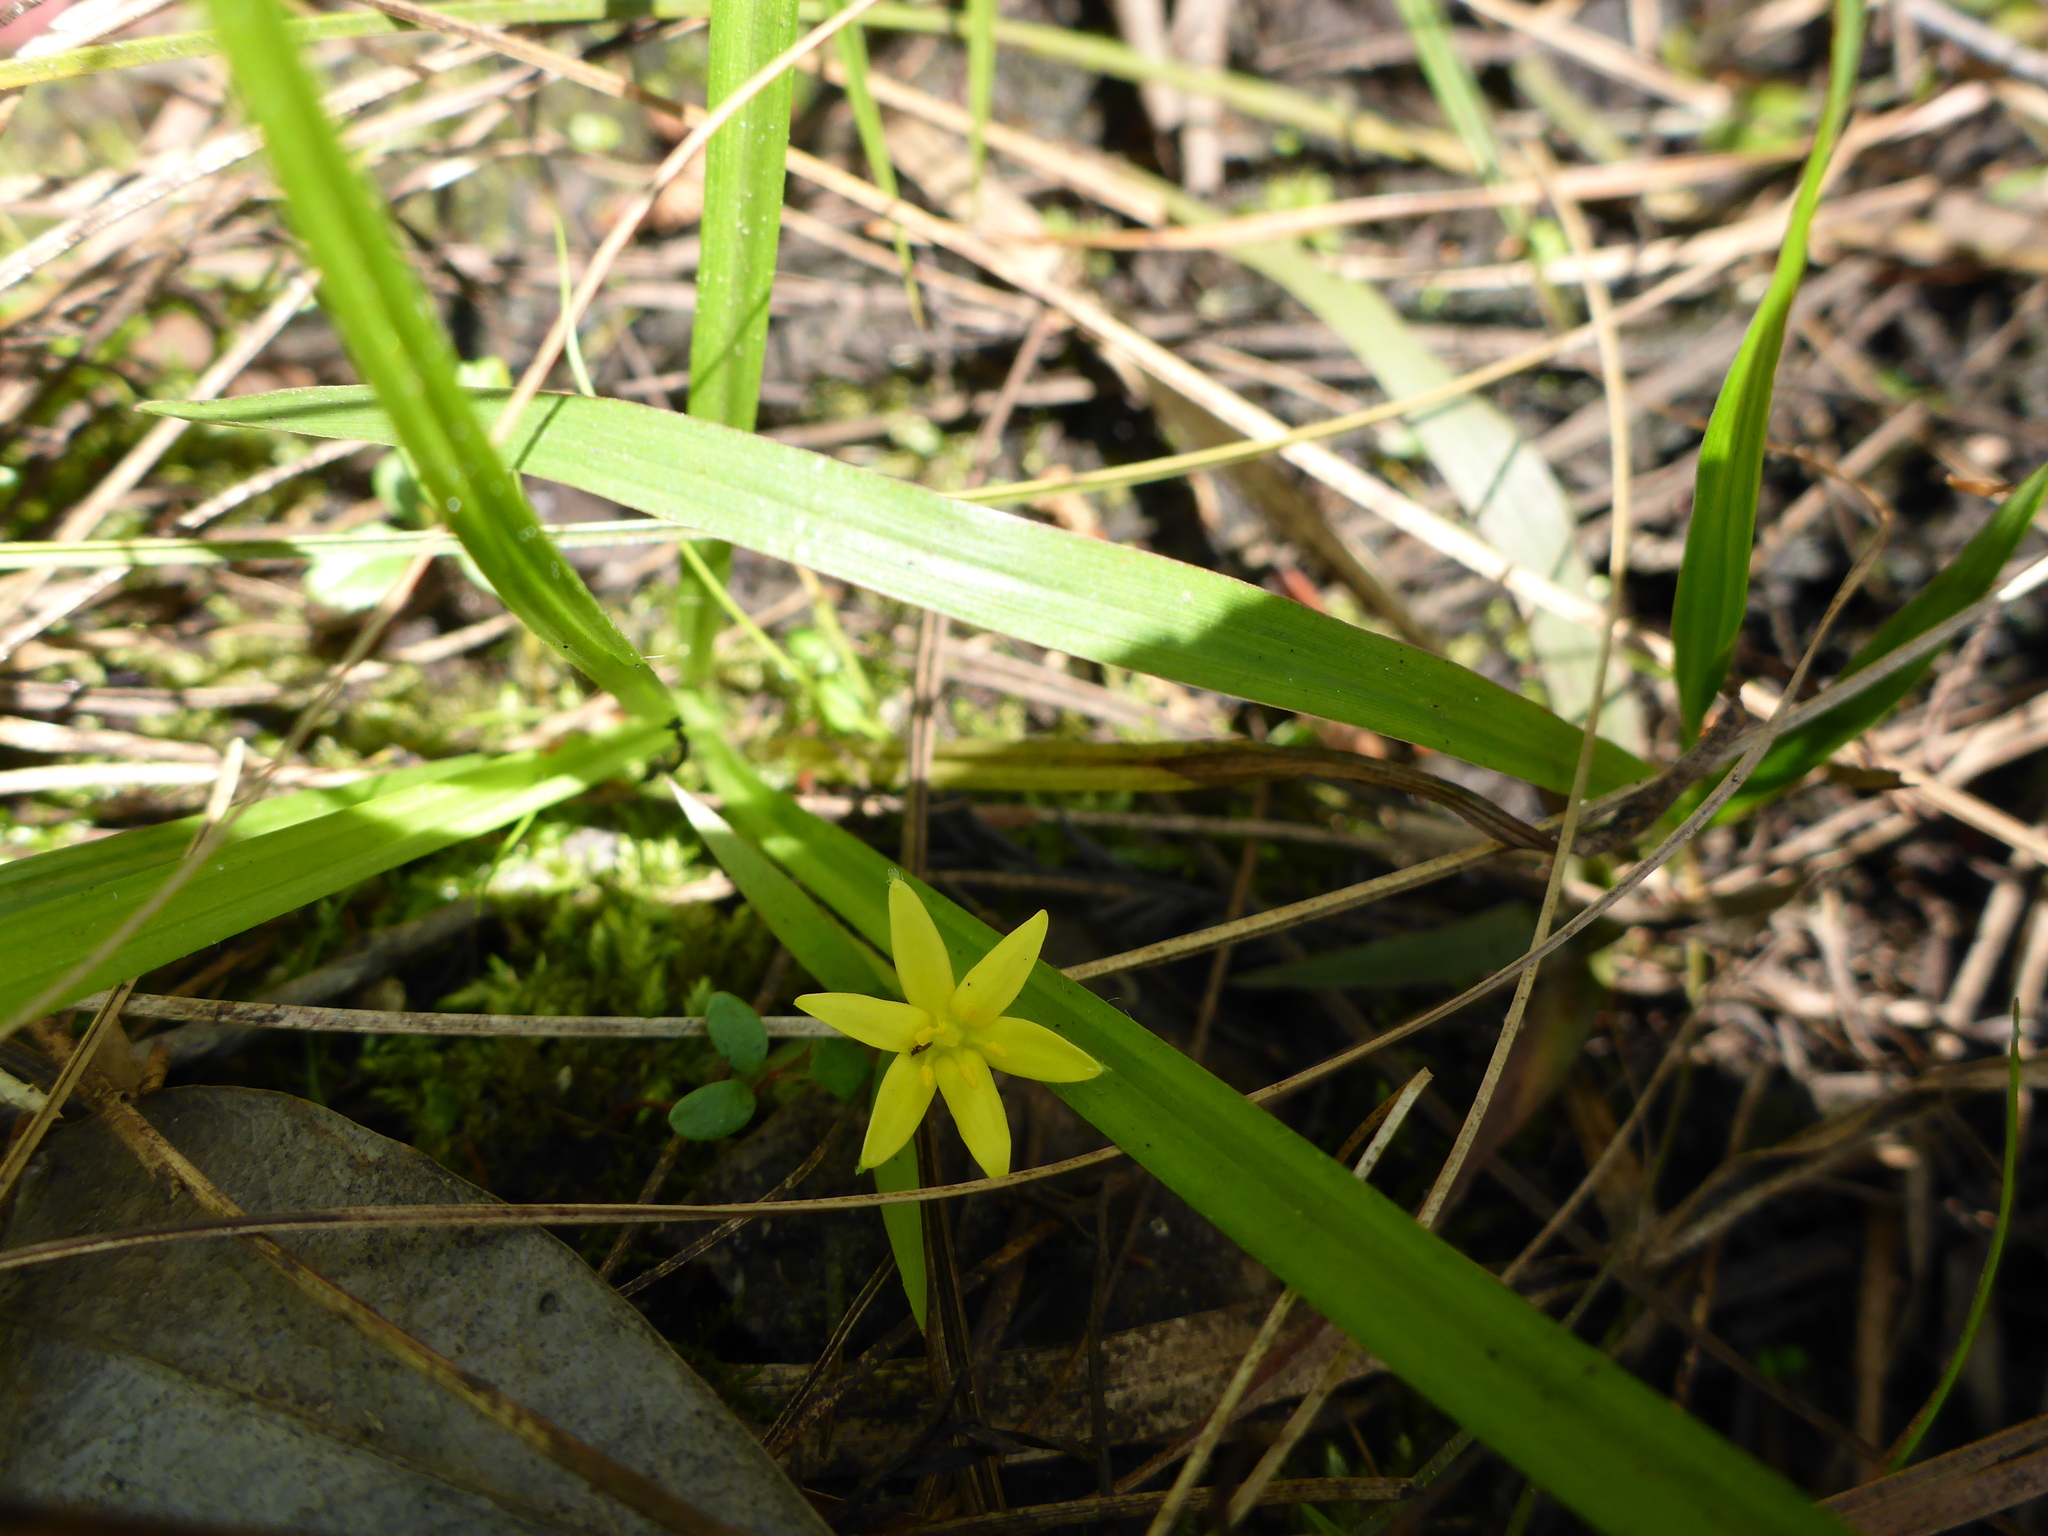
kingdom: Plantae
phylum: Tracheophyta
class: Liliopsida
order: Asparagales
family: Hypoxidaceae
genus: Hypoxis
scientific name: Hypoxis curtissii
